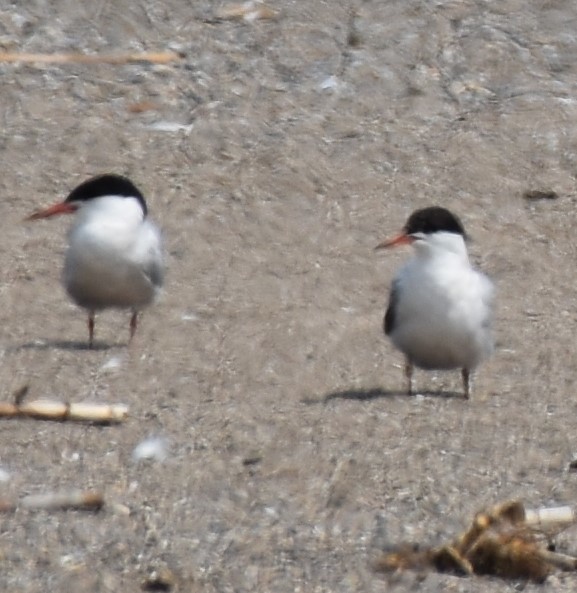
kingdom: Animalia
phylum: Chordata
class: Aves
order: Charadriiformes
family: Laridae
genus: Sterna
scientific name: Sterna hirundo
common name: Common tern
